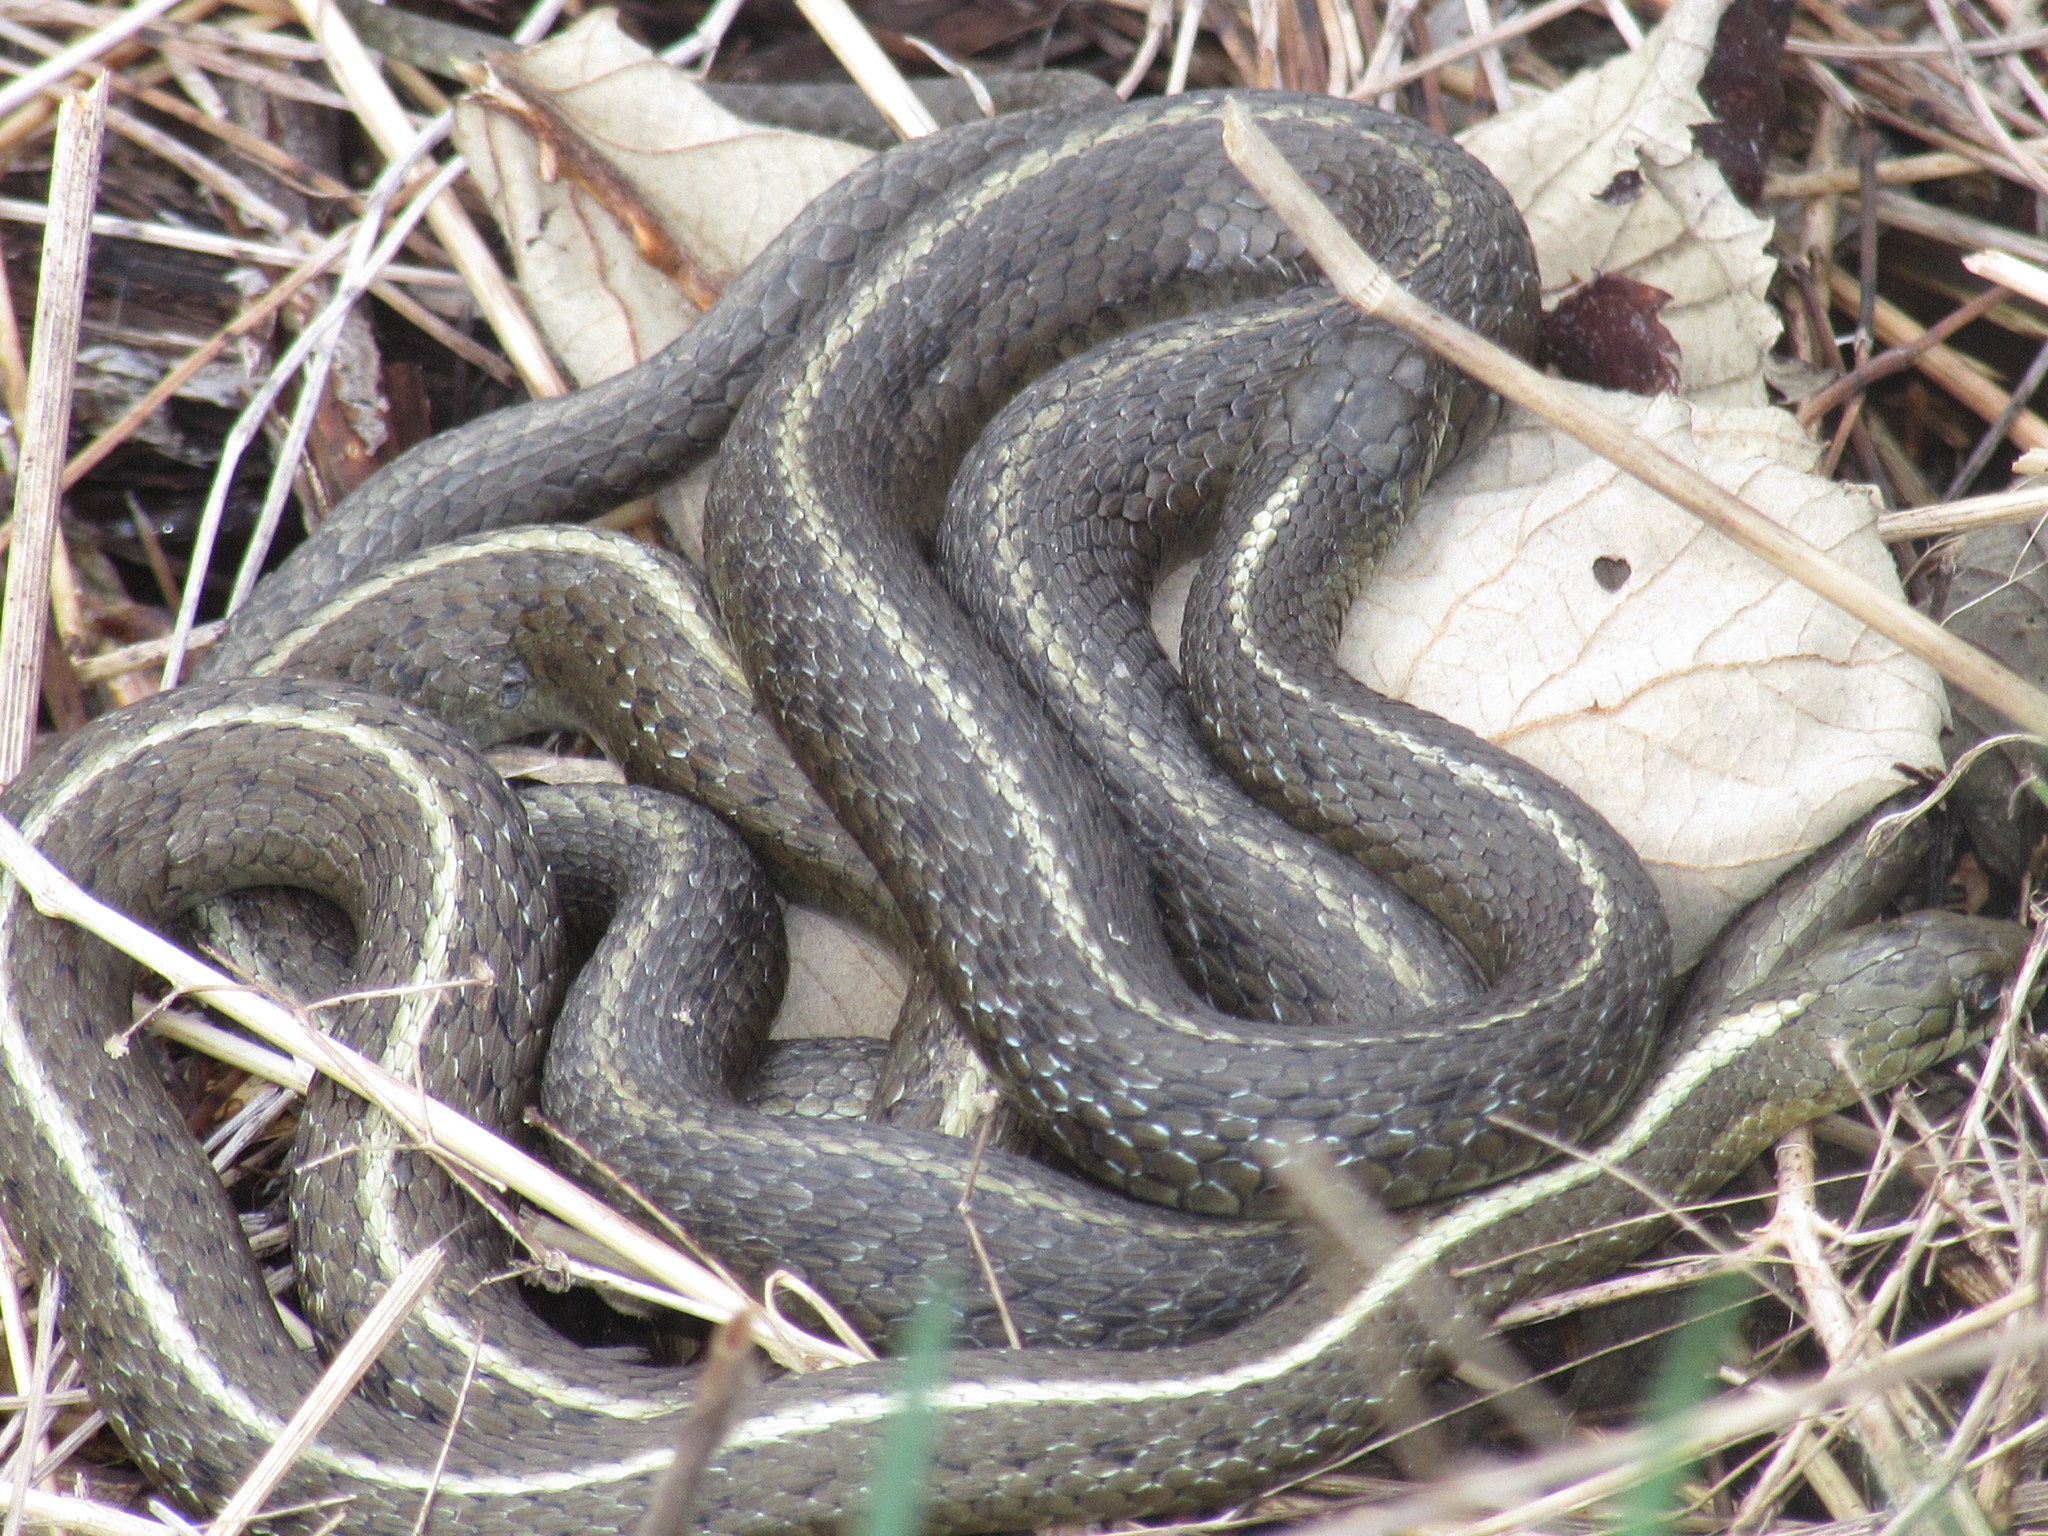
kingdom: Animalia
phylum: Chordata
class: Squamata
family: Colubridae
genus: Thamnophis
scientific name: Thamnophis ordinoides
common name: Northwestern garter snake
